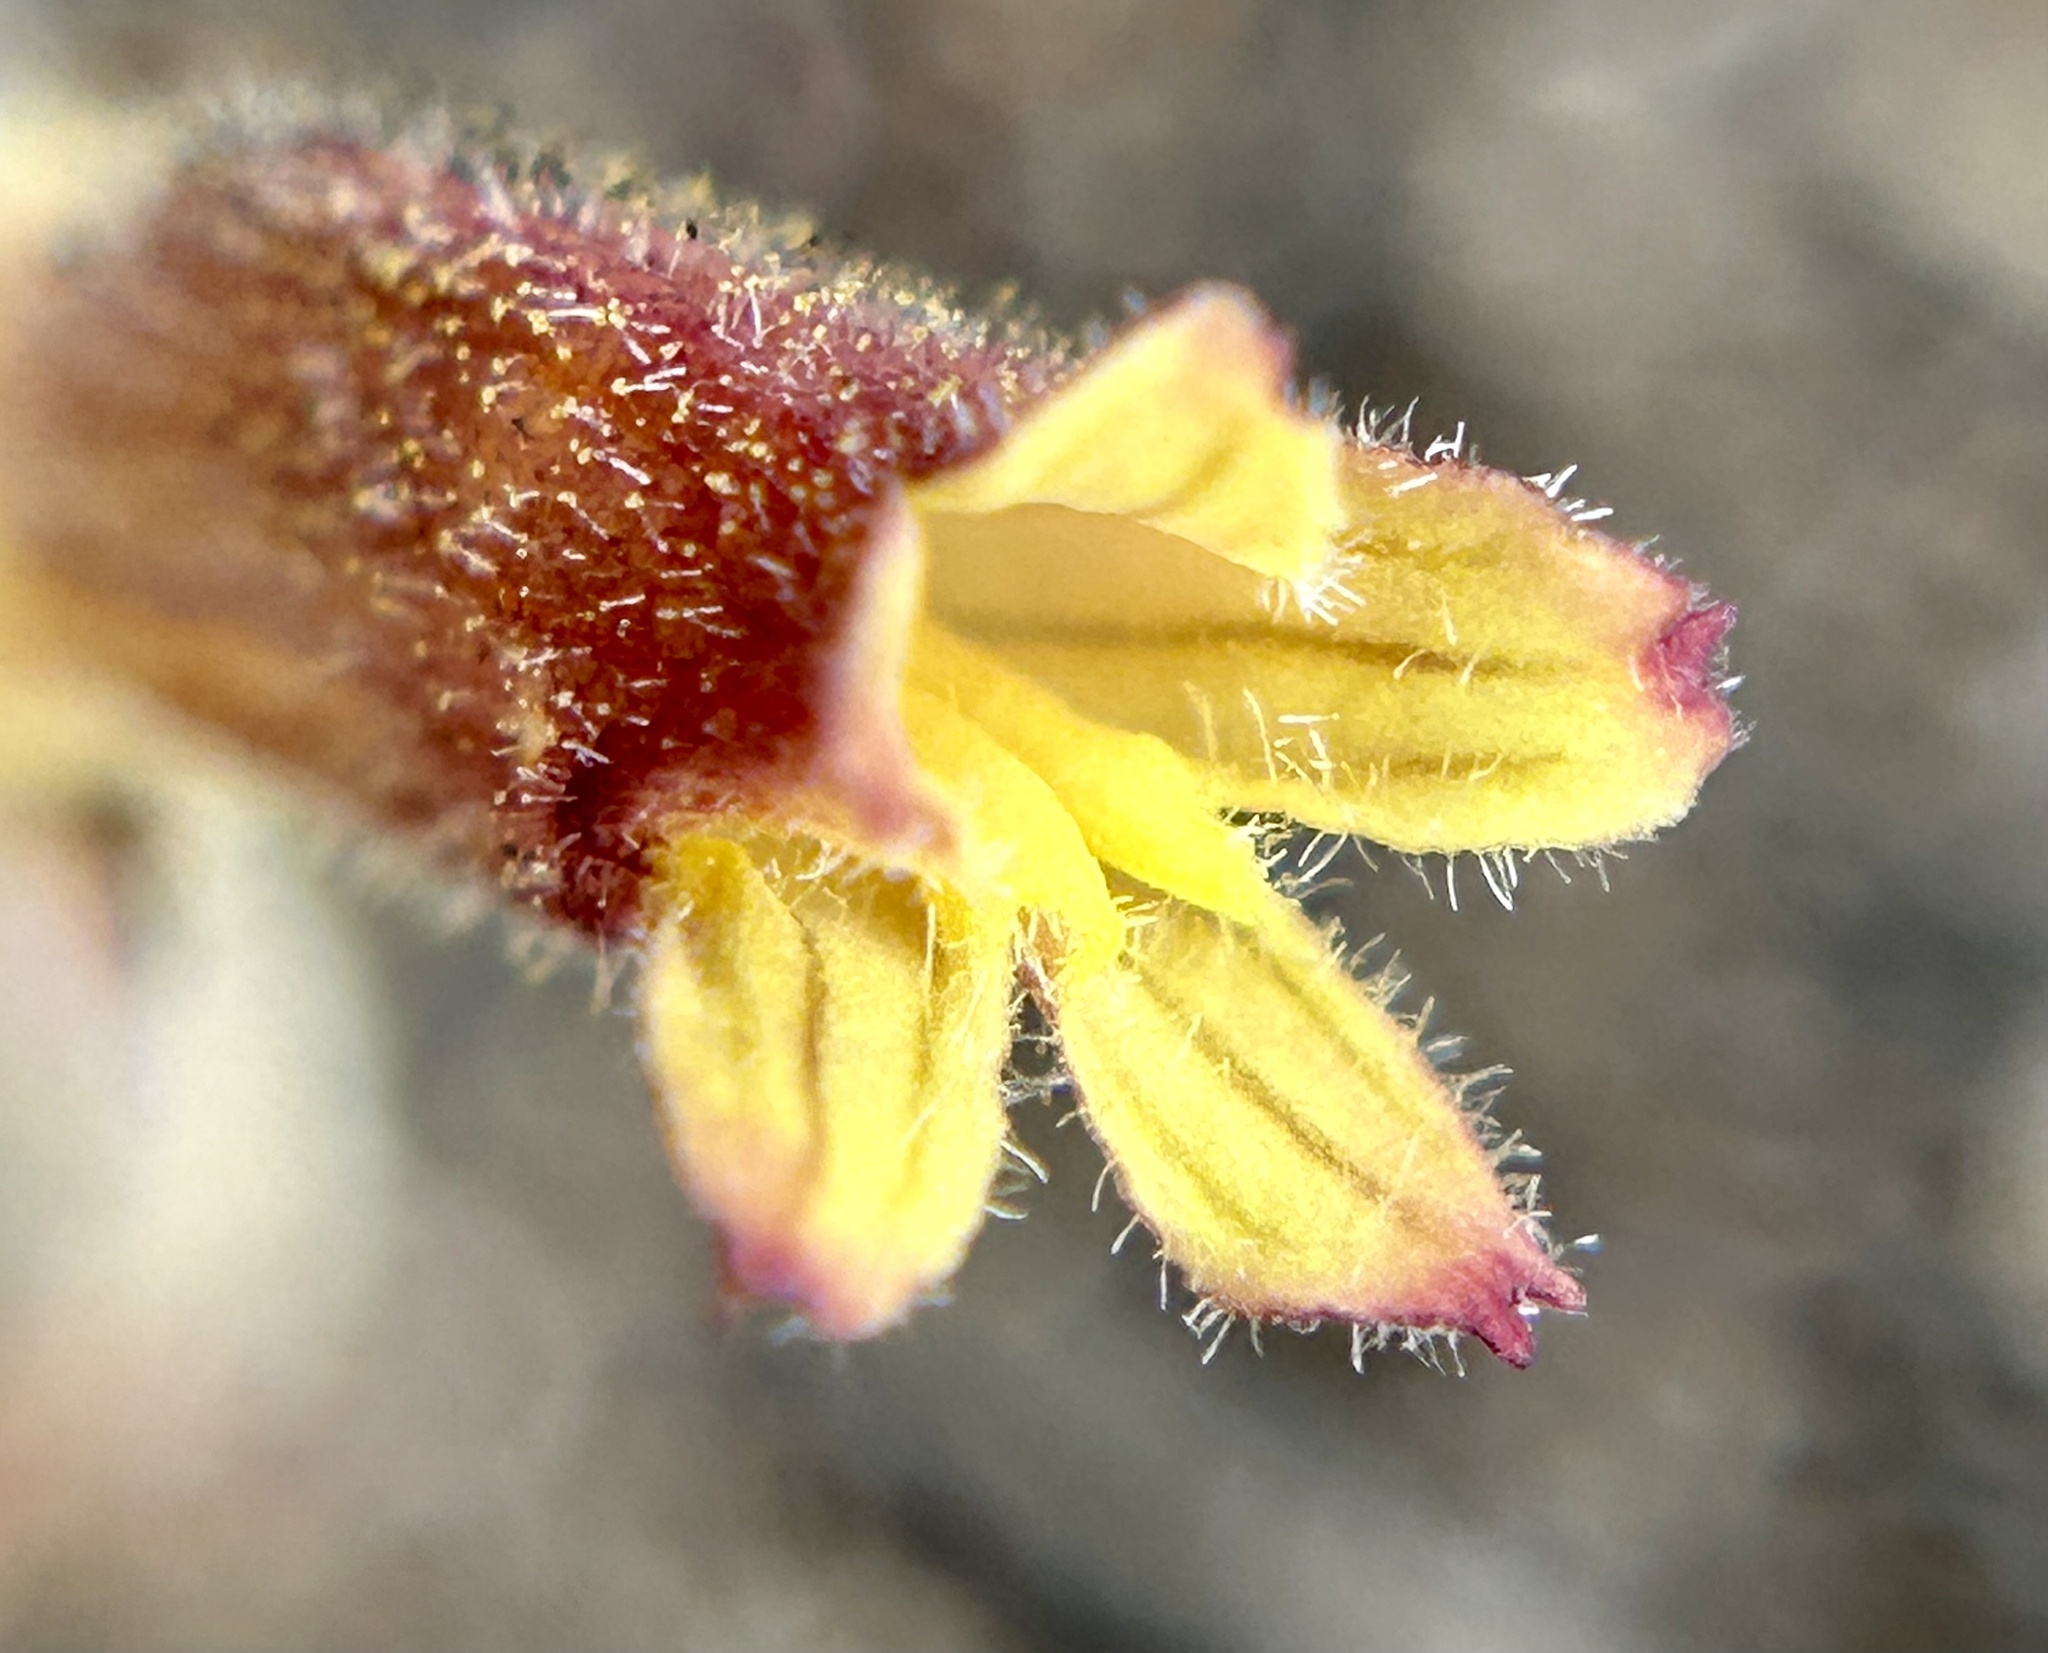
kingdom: Plantae
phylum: Tracheophyta
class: Magnoliopsida
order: Lamiales
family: Orobanchaceae
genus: Aphyllon
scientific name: Aphyllon franciscanum
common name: San francisco broomrape
